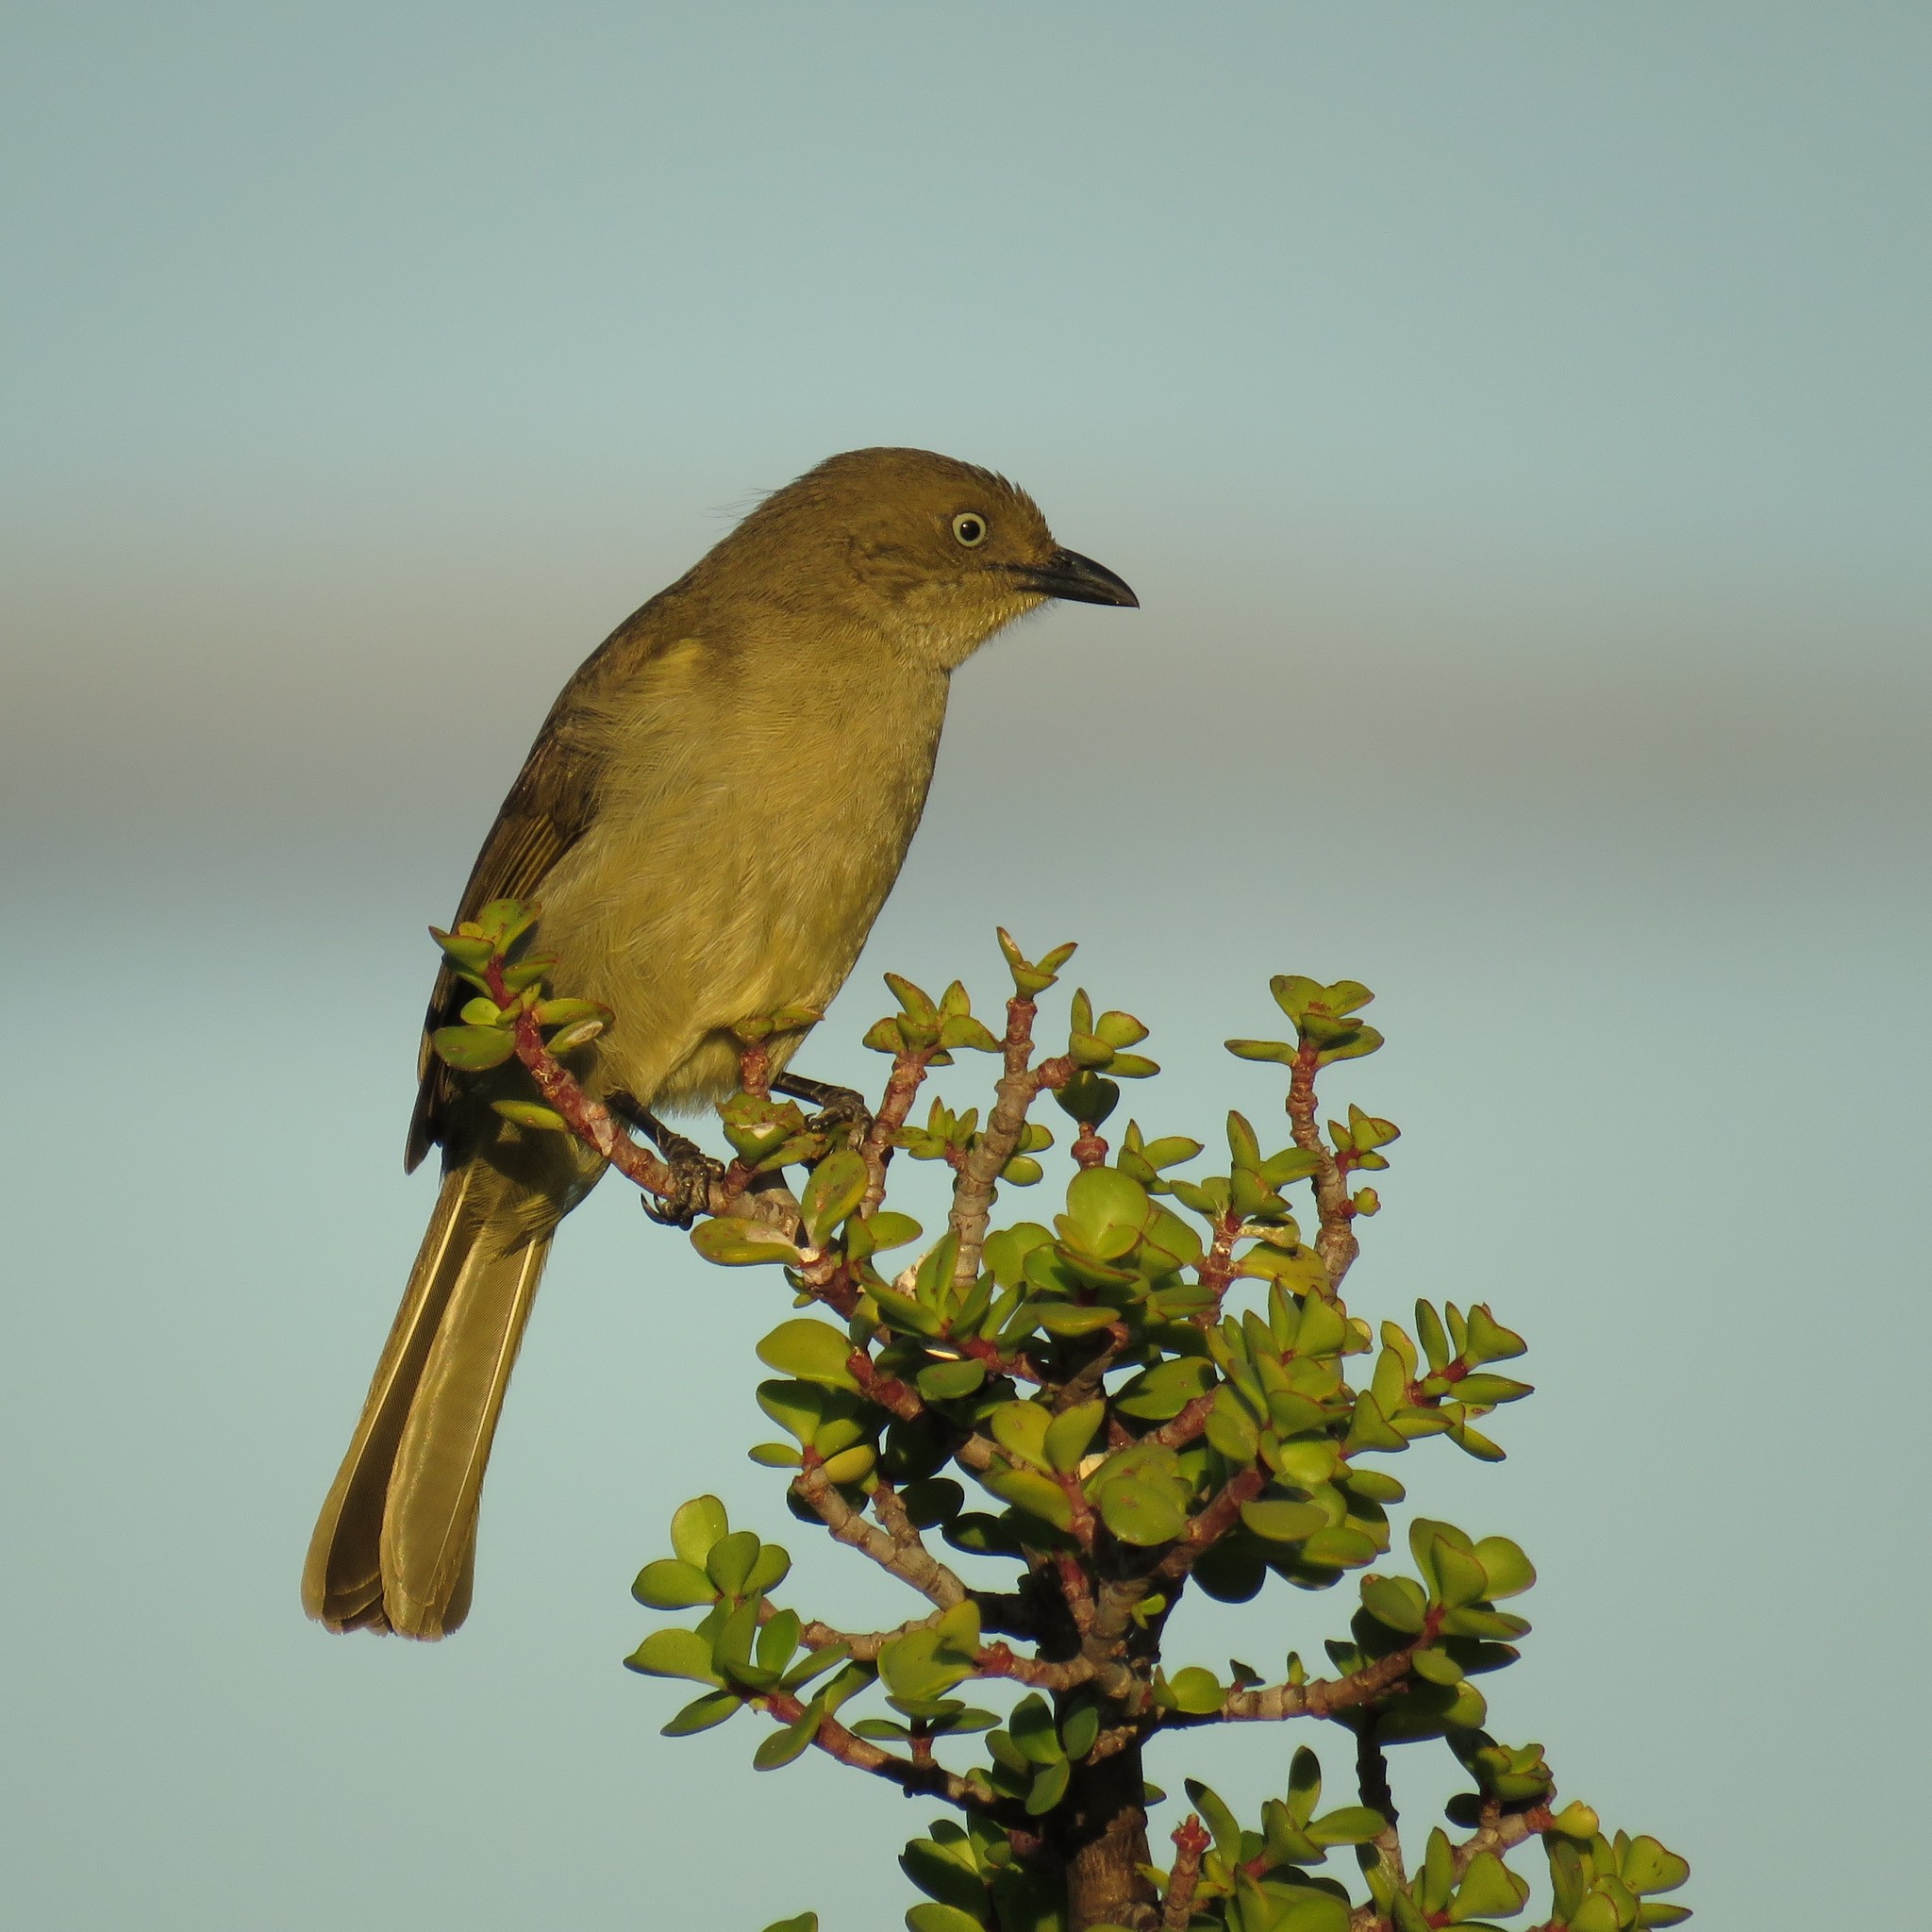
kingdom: Animalia
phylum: Chordata
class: Aves
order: Passeriformes
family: Pycnonotidae
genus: Andropadus
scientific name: Andropadus importunus
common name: Sombre greenbul
